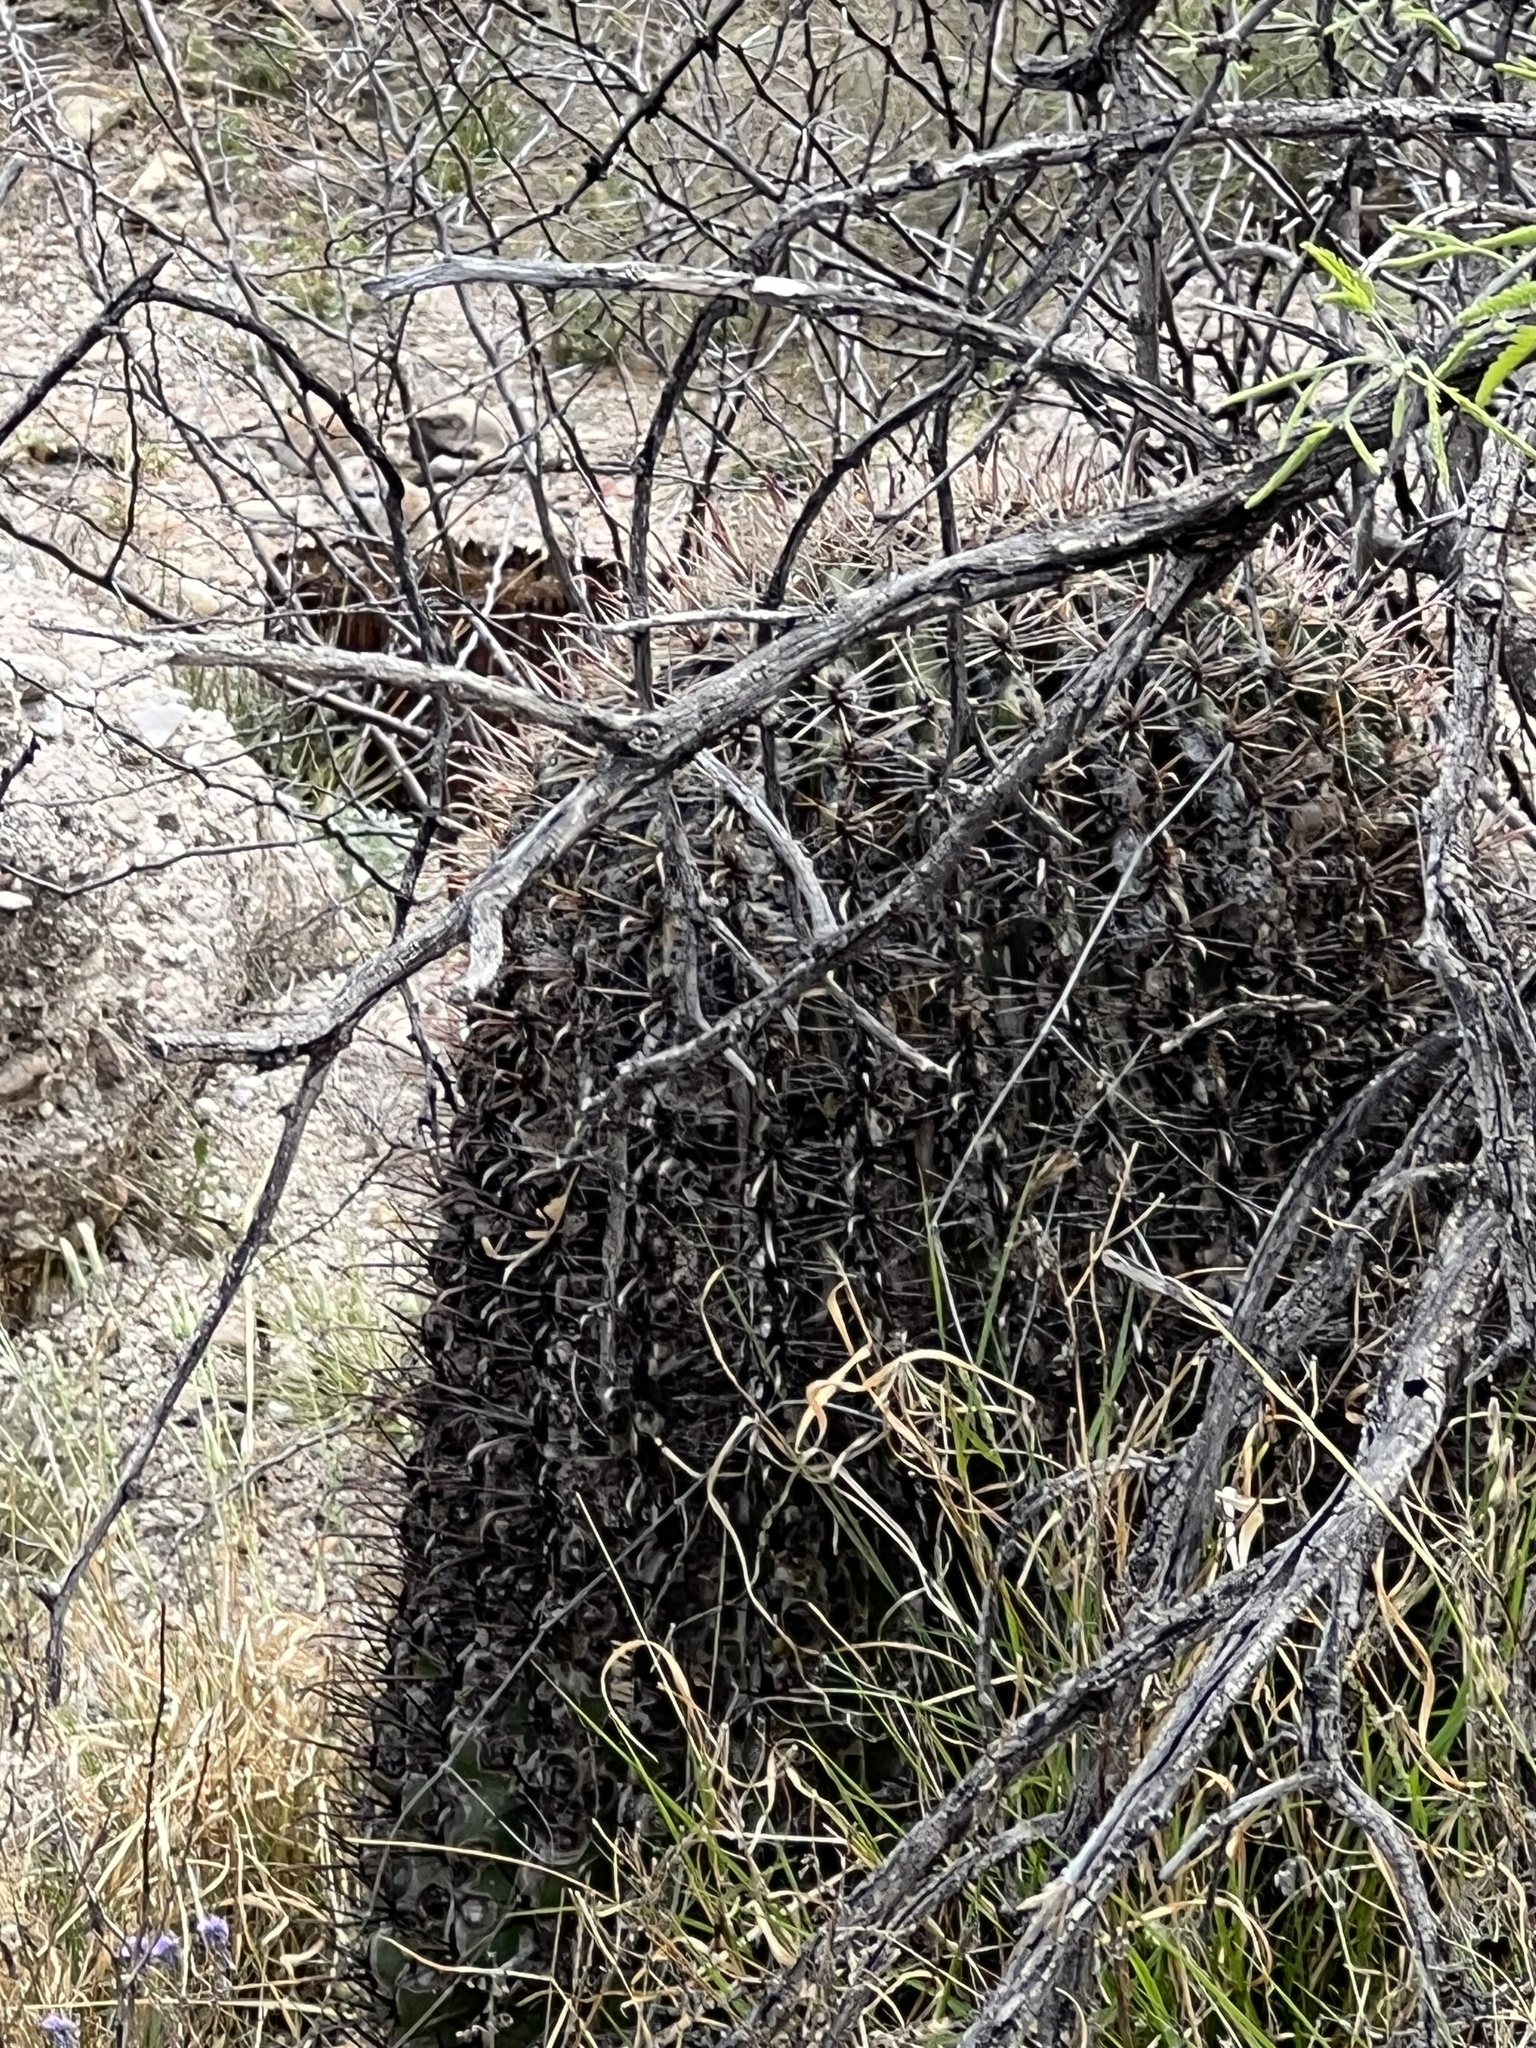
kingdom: Plantae
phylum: Tracheophyta
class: Magnoliopsida
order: Caryophyllales
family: Cactaceae
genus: Ferocactus
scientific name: Ferocactus wislizeni
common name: Candy barrel cactus
